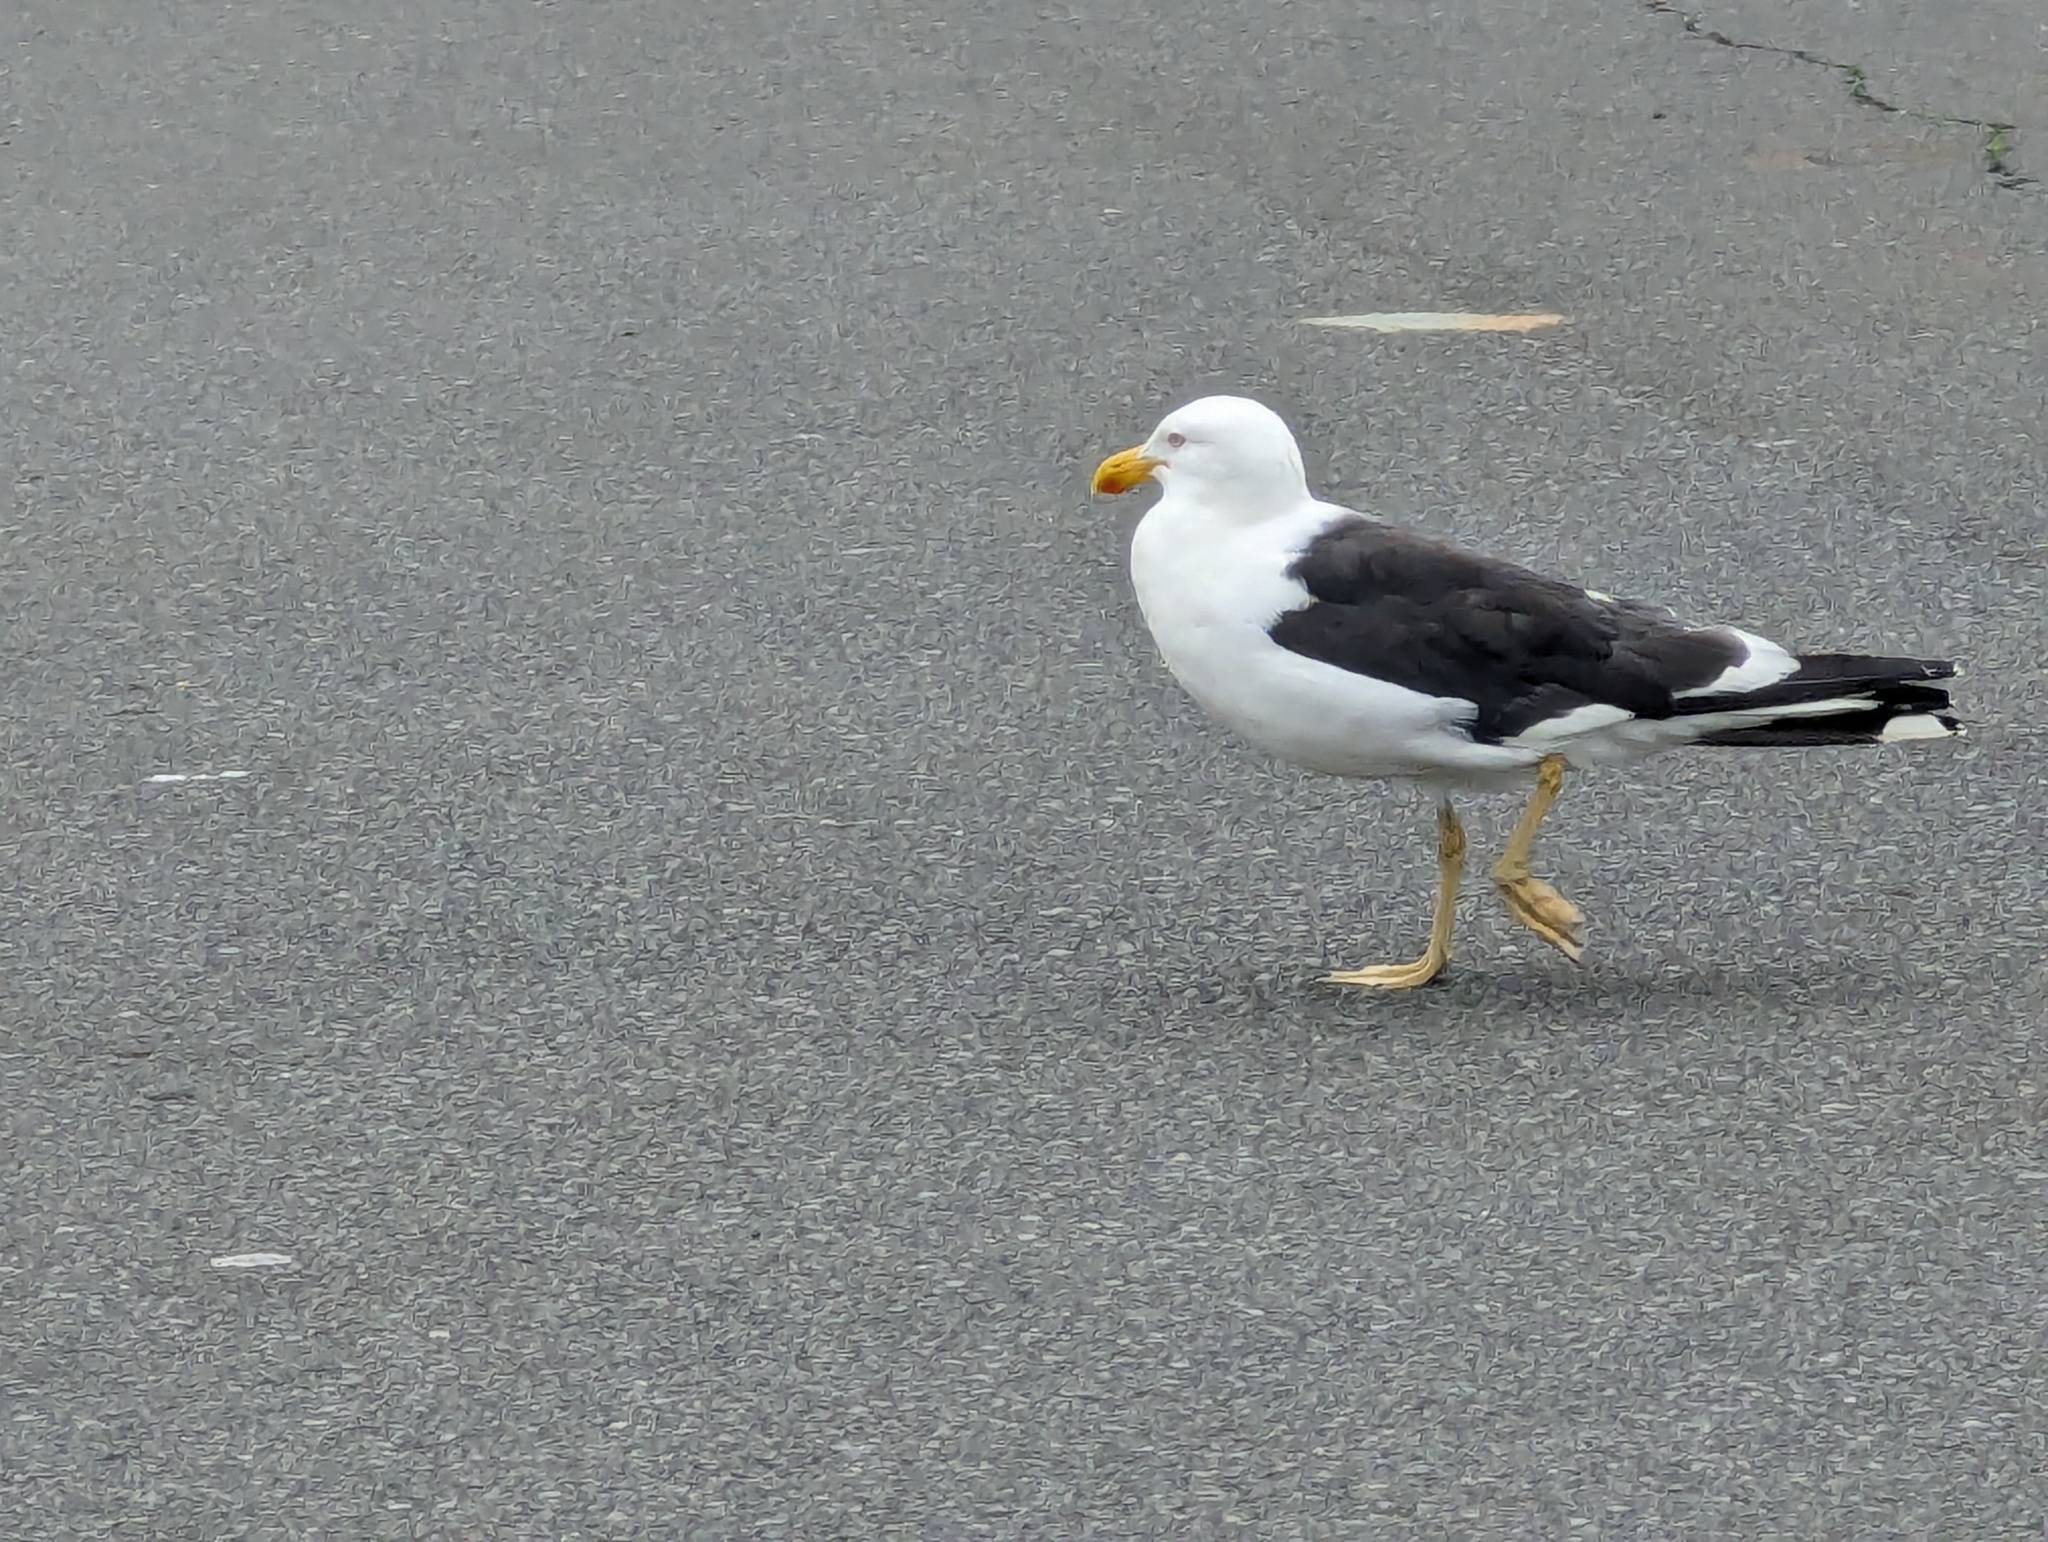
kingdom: Animalia
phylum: Chordata
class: Aves
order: Charadriiformes
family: Laridae
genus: Larus
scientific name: Larus dominicanus
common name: Kelp gull
